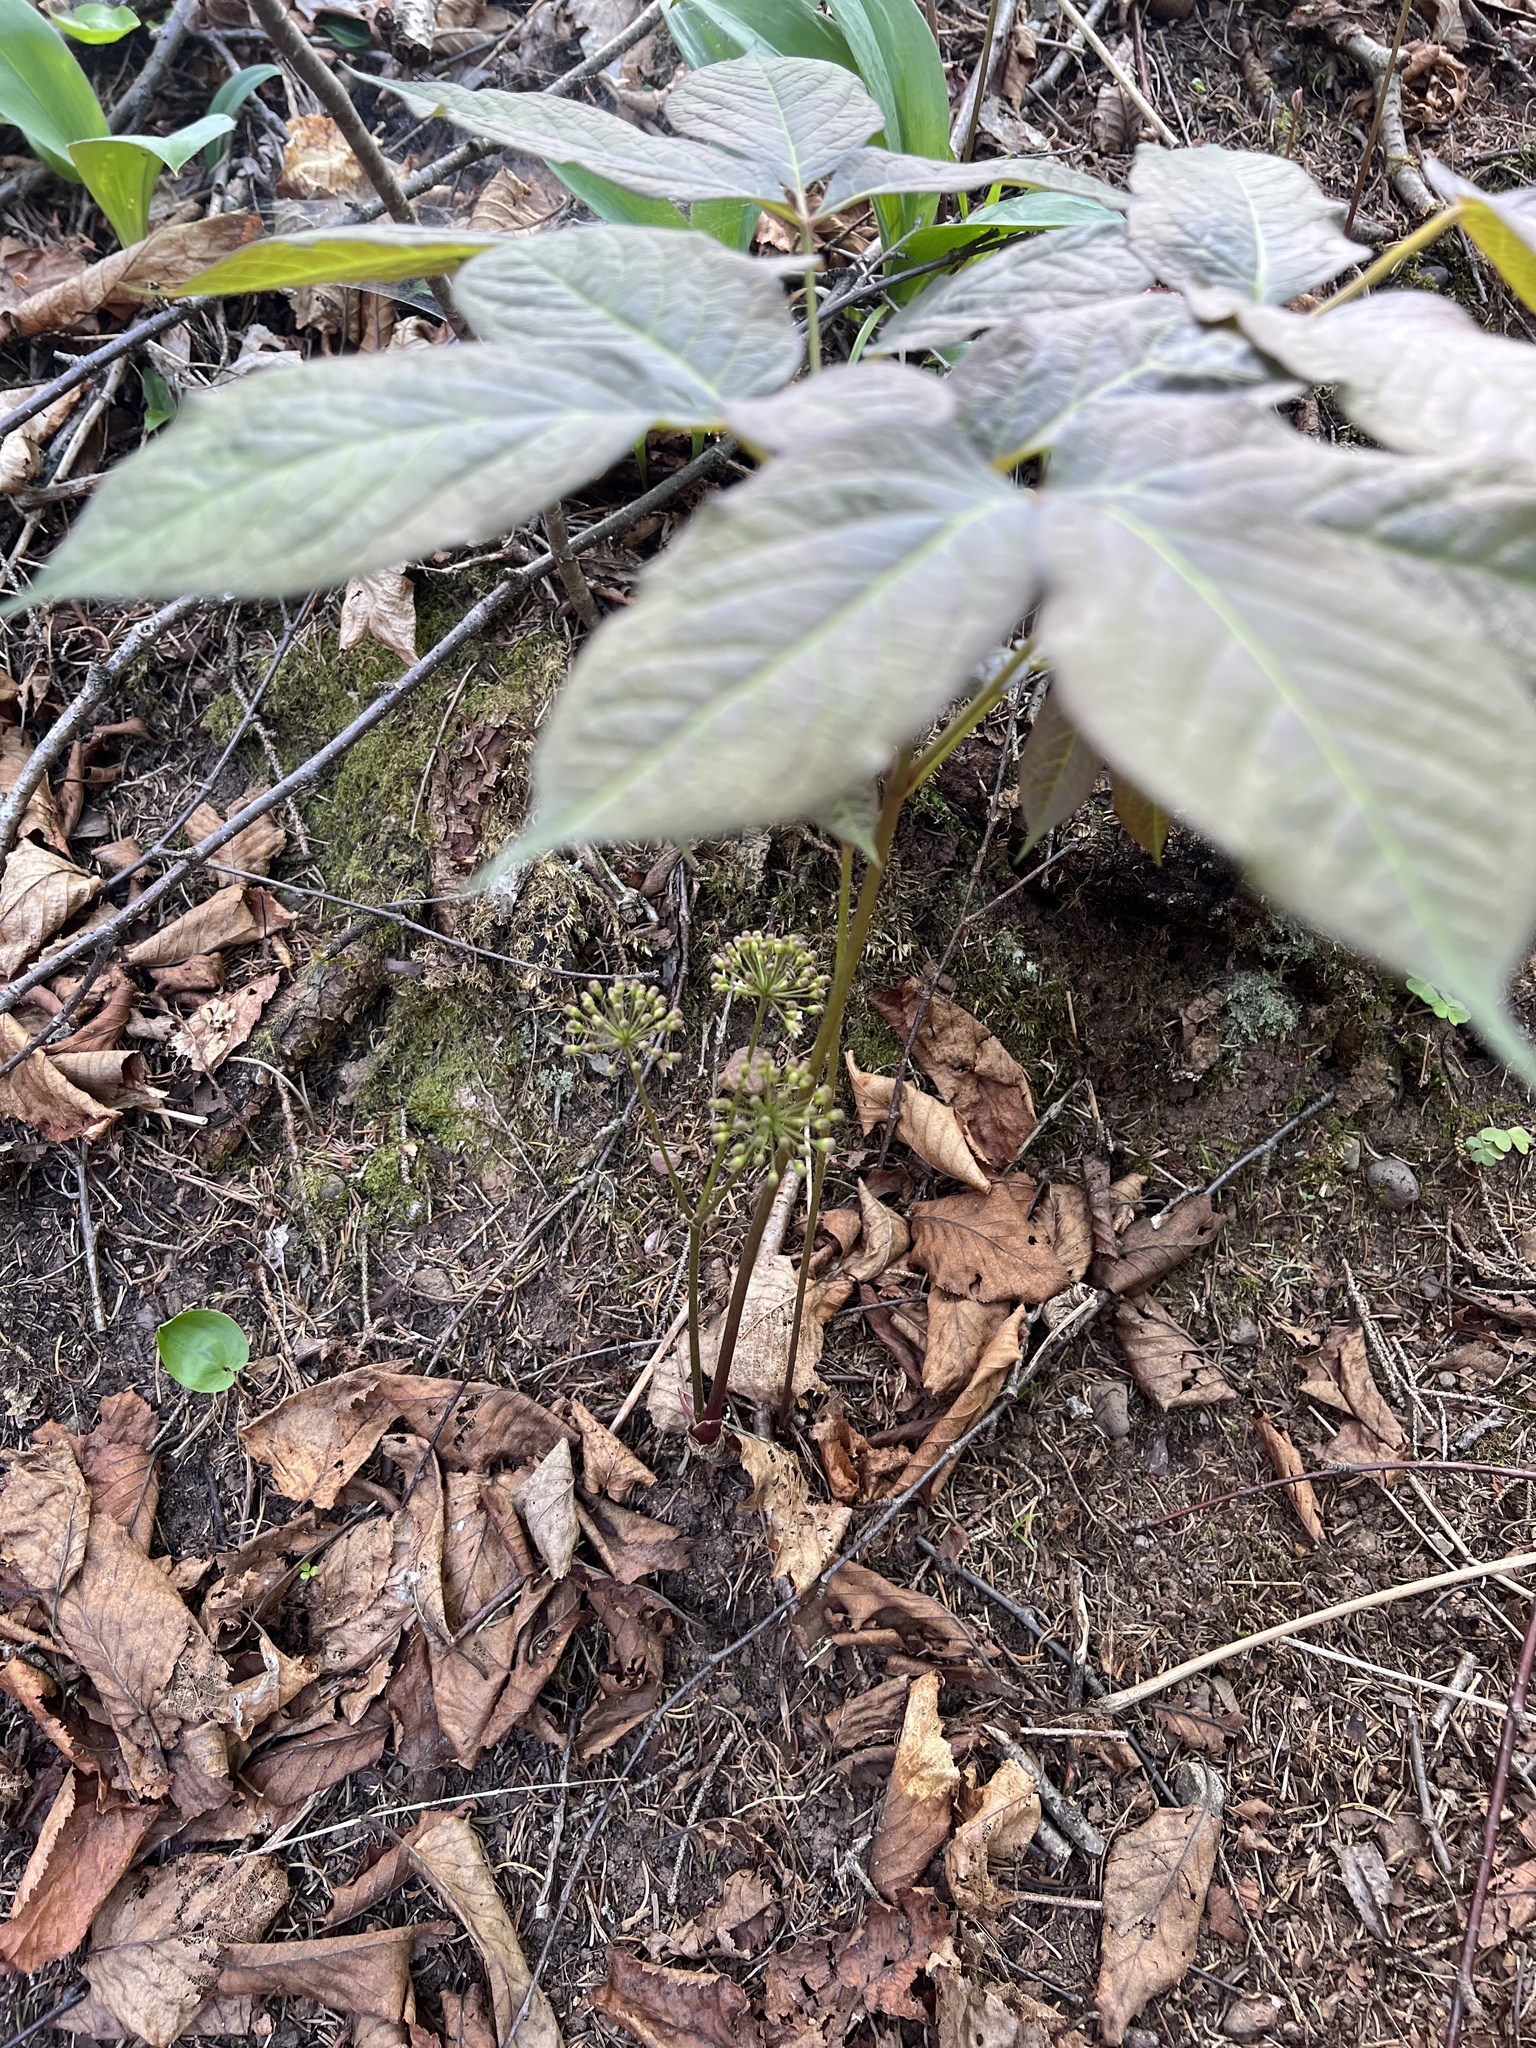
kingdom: Plantae
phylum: Tracheophyta
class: Magnoliopsida
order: Apiales
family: Araliaceae
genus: Aralia
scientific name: Aralia nudicaulis
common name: Wild sarsaparilla
